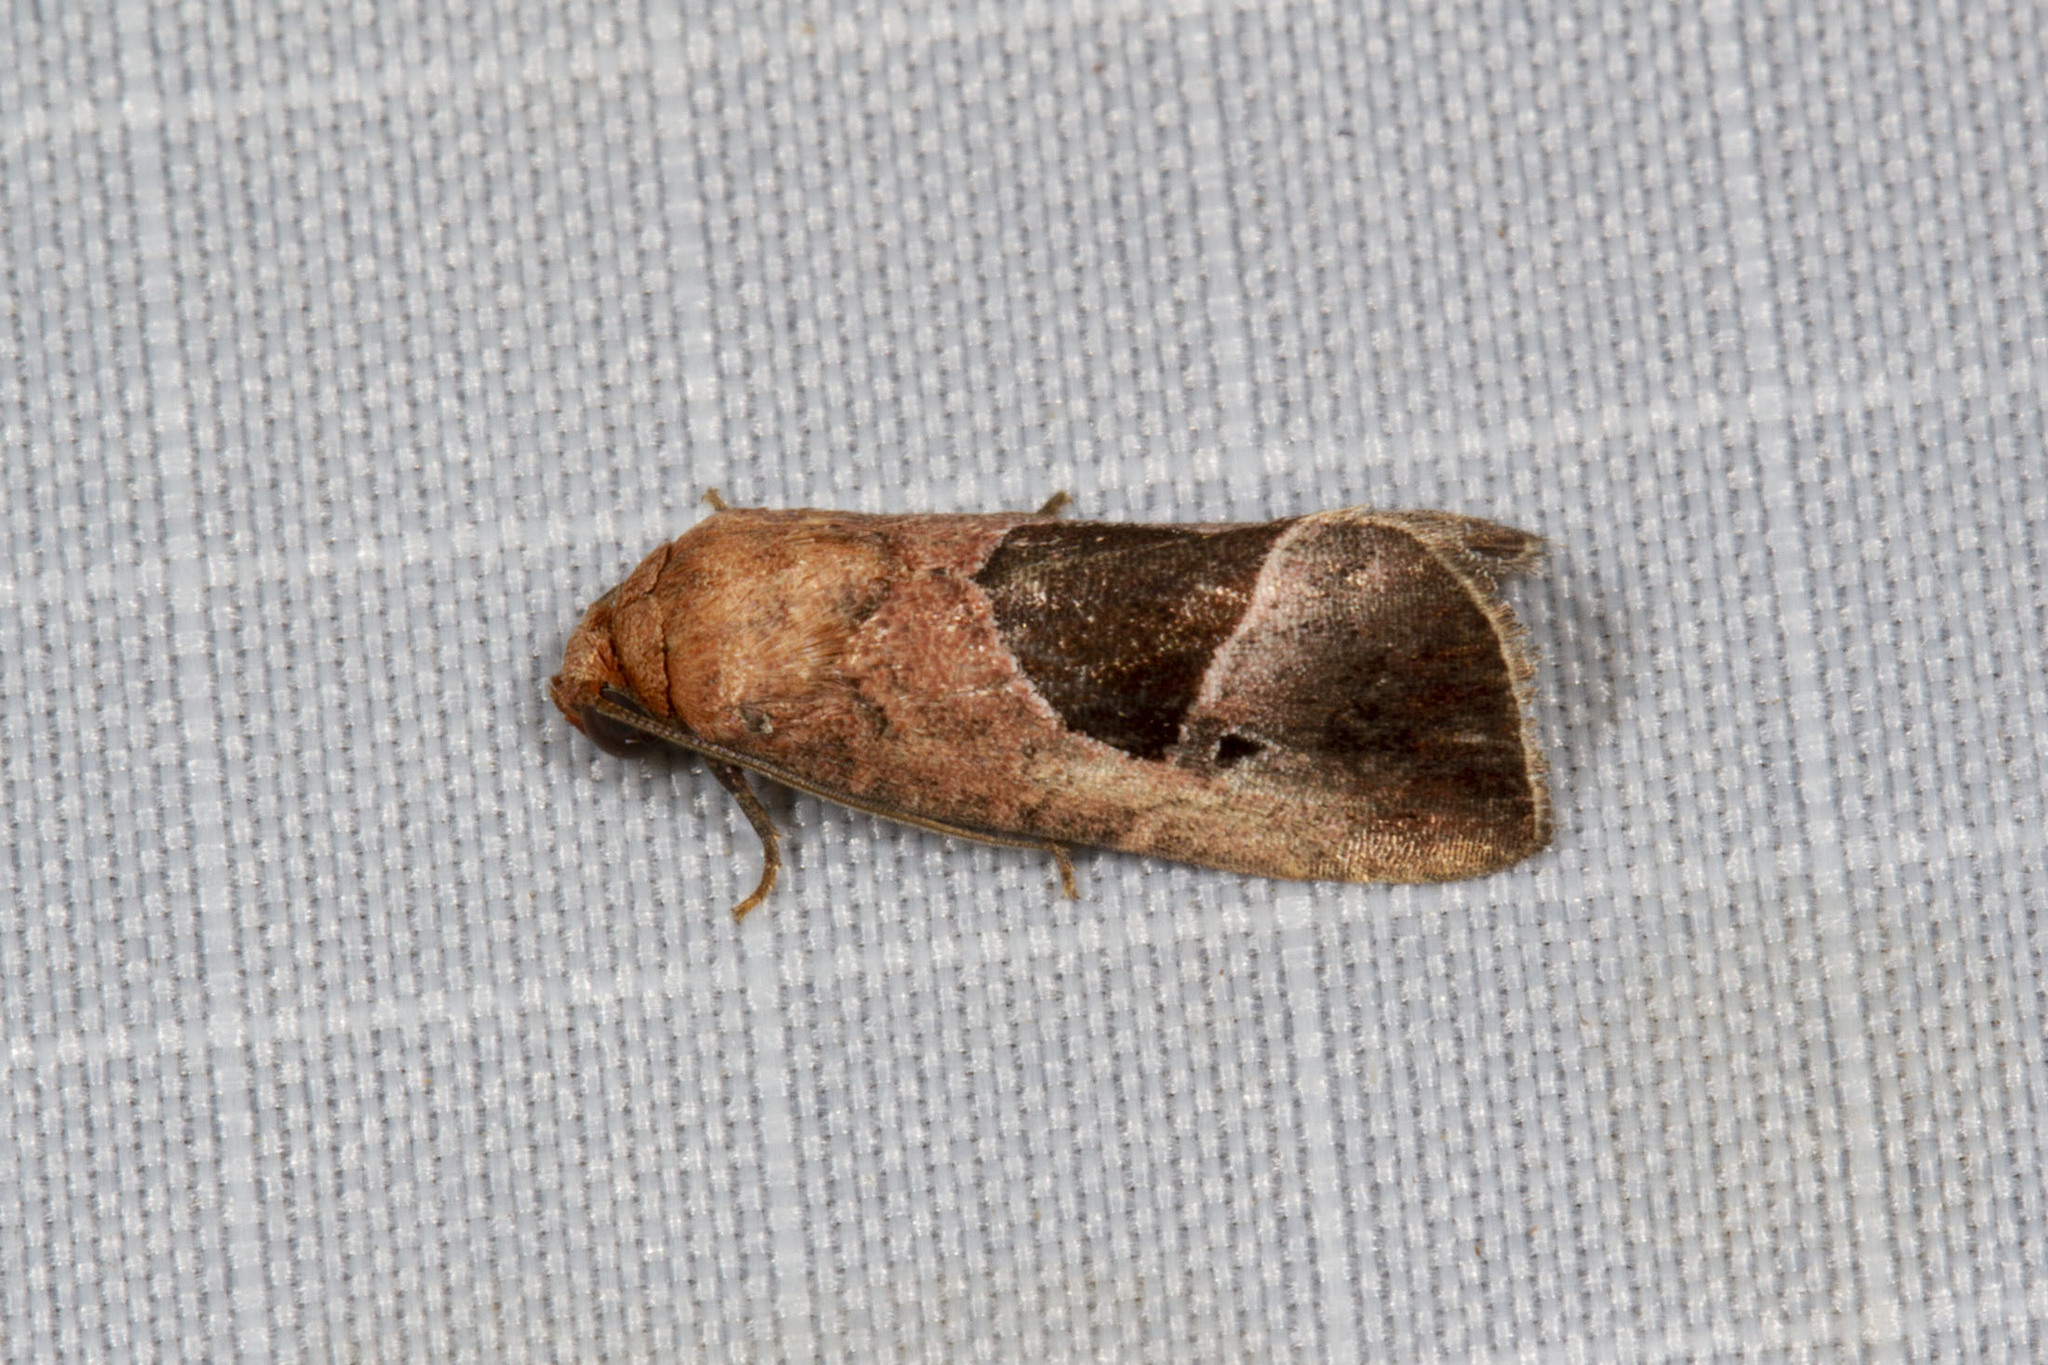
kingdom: Animalia
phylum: Arthropoda
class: Insecta
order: Lepidoptera
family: Noctuidae
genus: Elaphria
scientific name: Elaphria deltoides
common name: Cutworm moth
